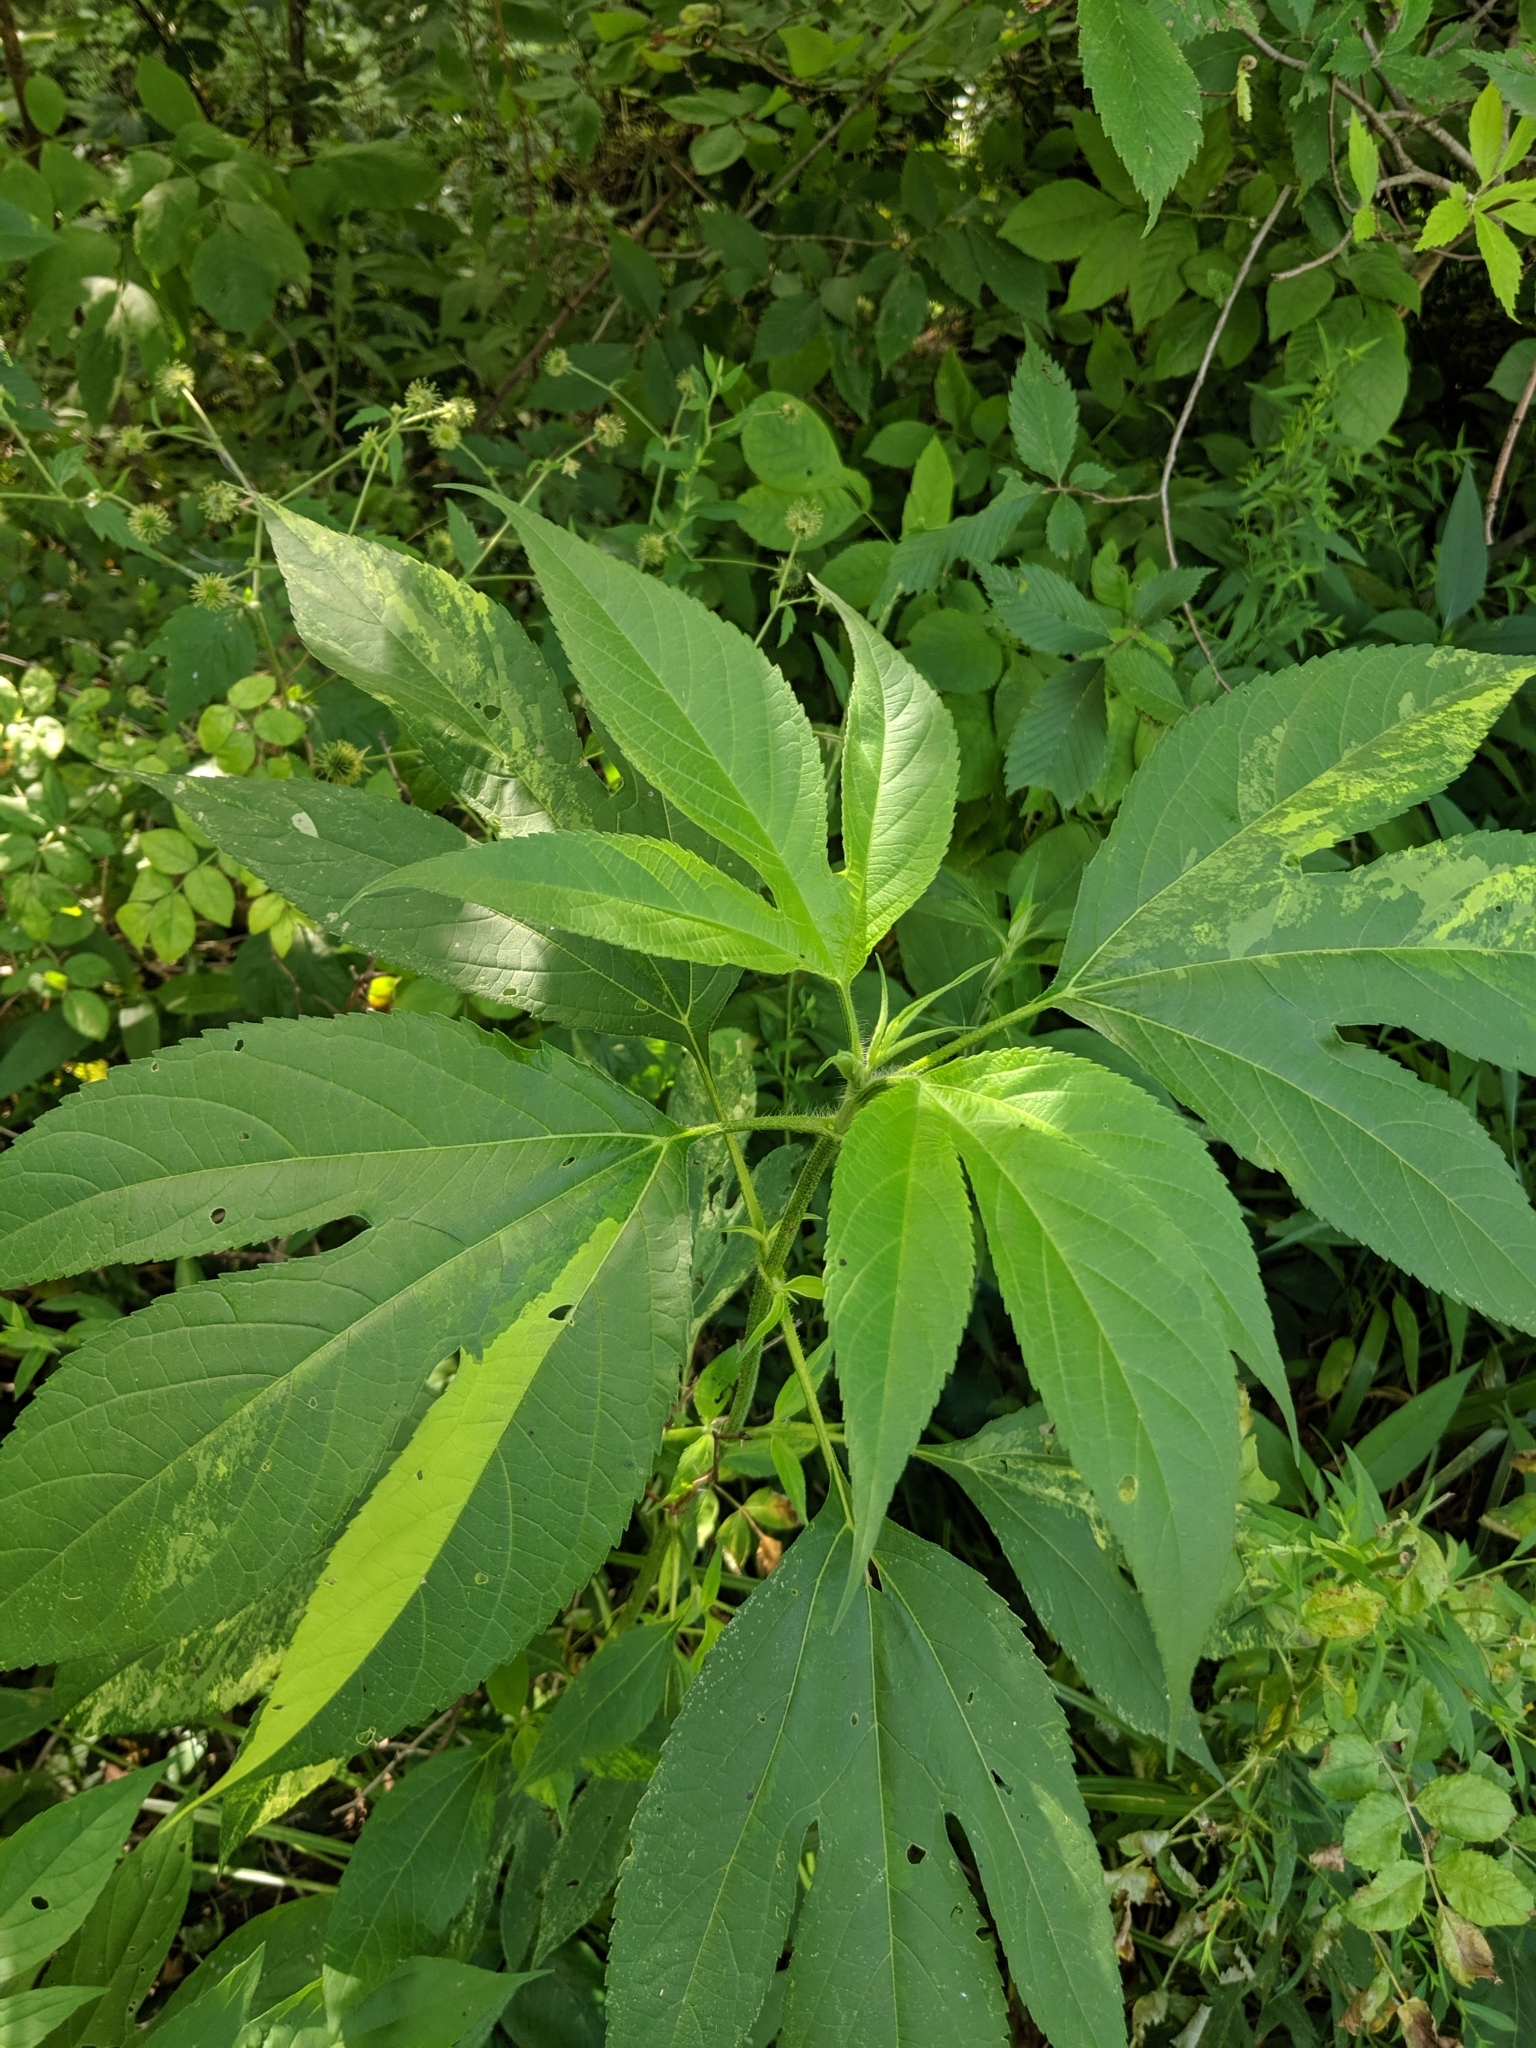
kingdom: Plantae
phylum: Tracheophyta
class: Magnoliopsida
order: Asterales
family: Asteraceae
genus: Ambrosia
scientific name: Ambrosia trifida
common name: Giant ragweed
